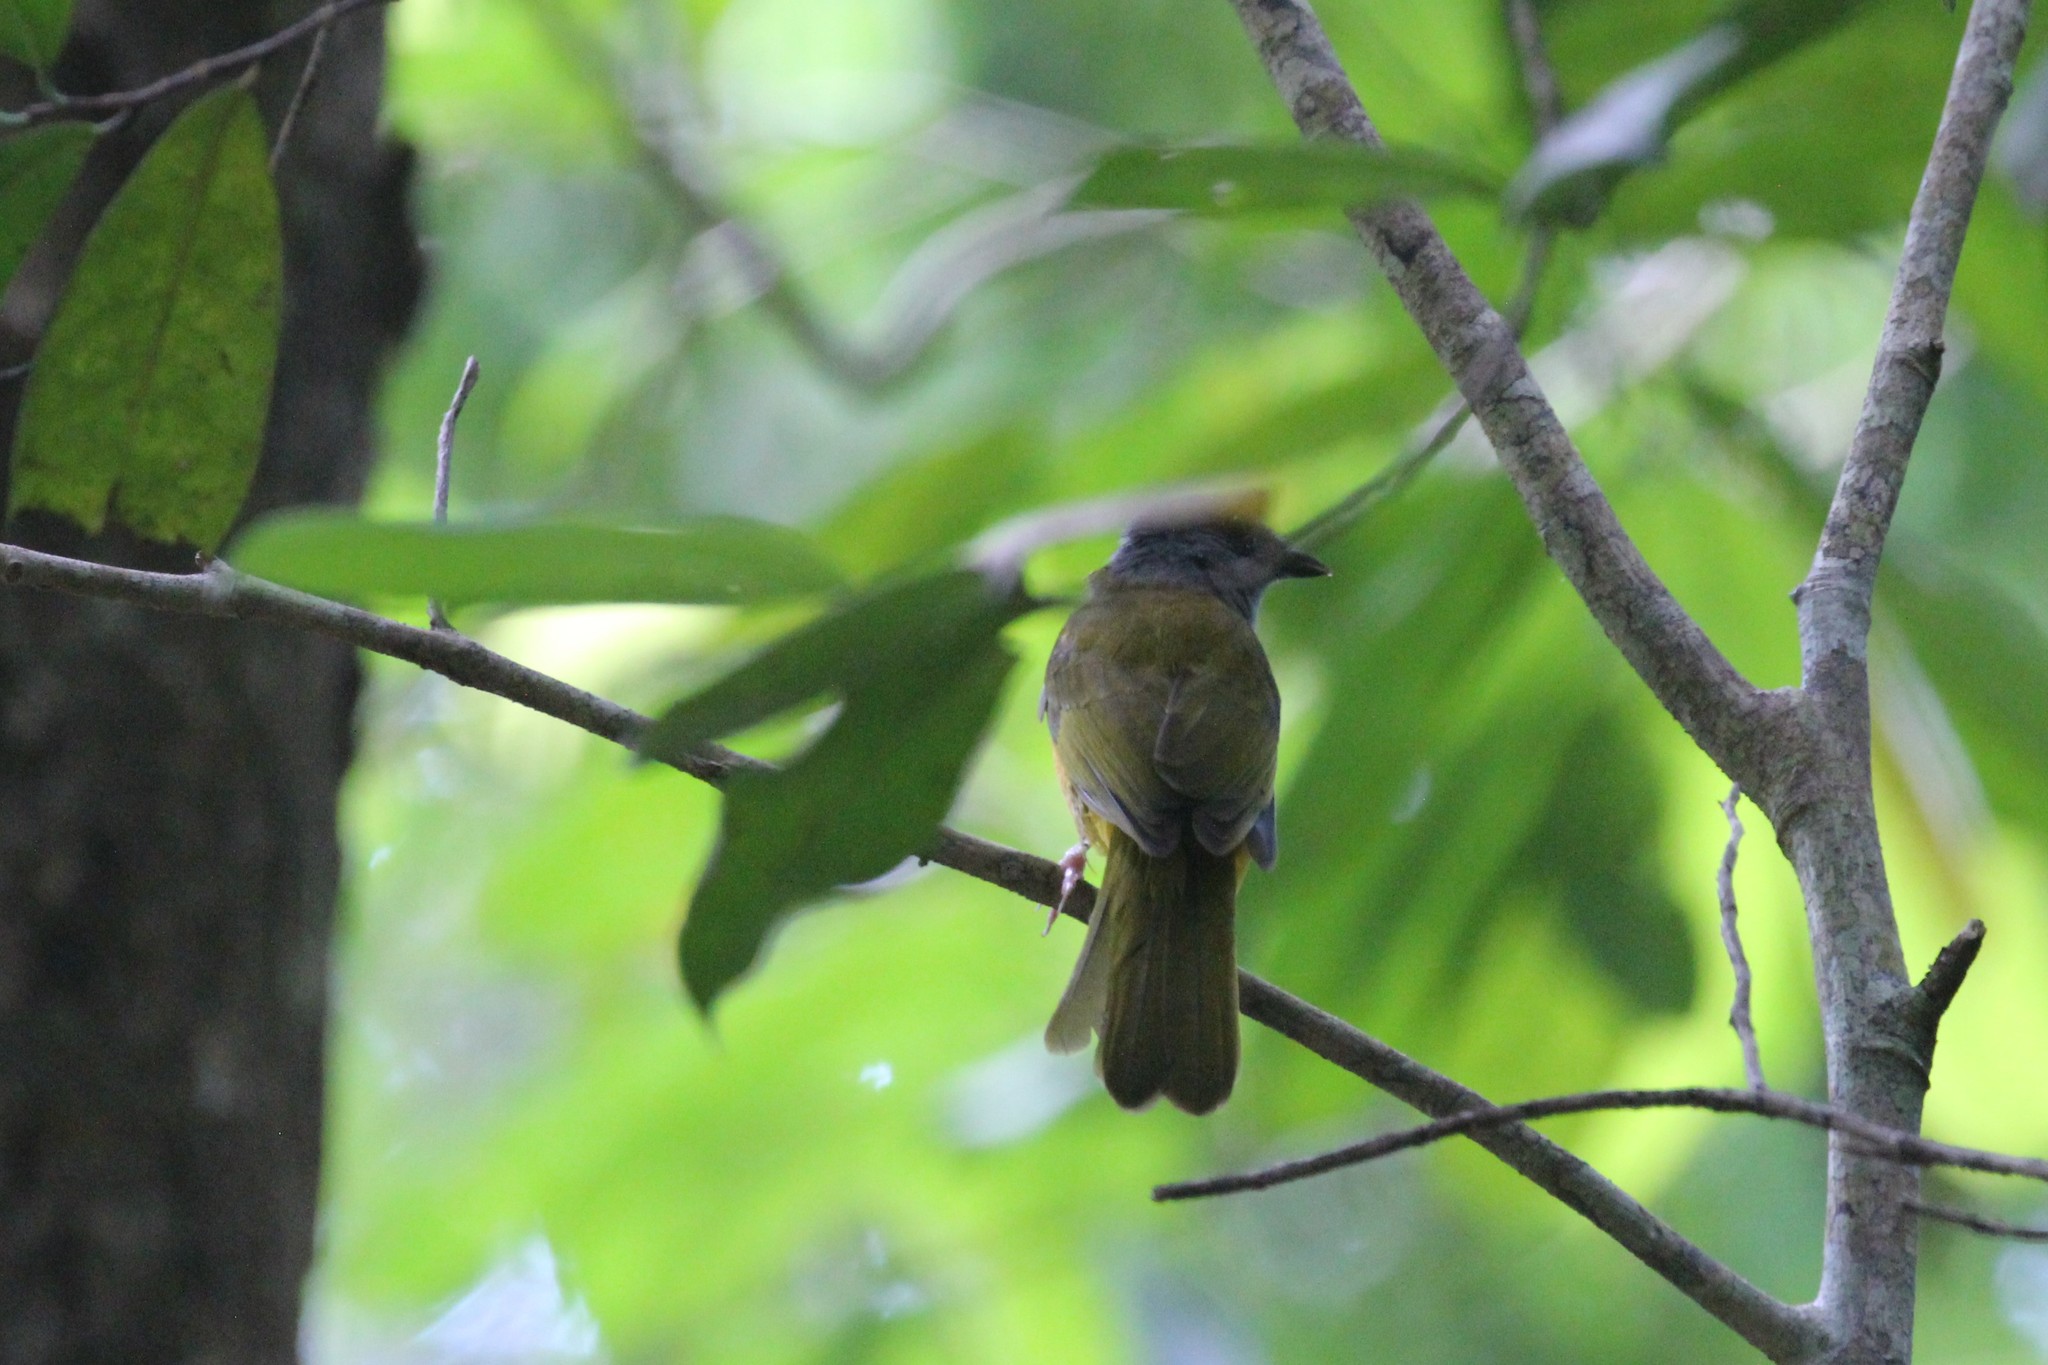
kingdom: Animalia
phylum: Chordata
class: Aves
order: Passeriformes
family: Thraupidae
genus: Eucometis
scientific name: Eucometis penicillata
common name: Grey-headed tanager
